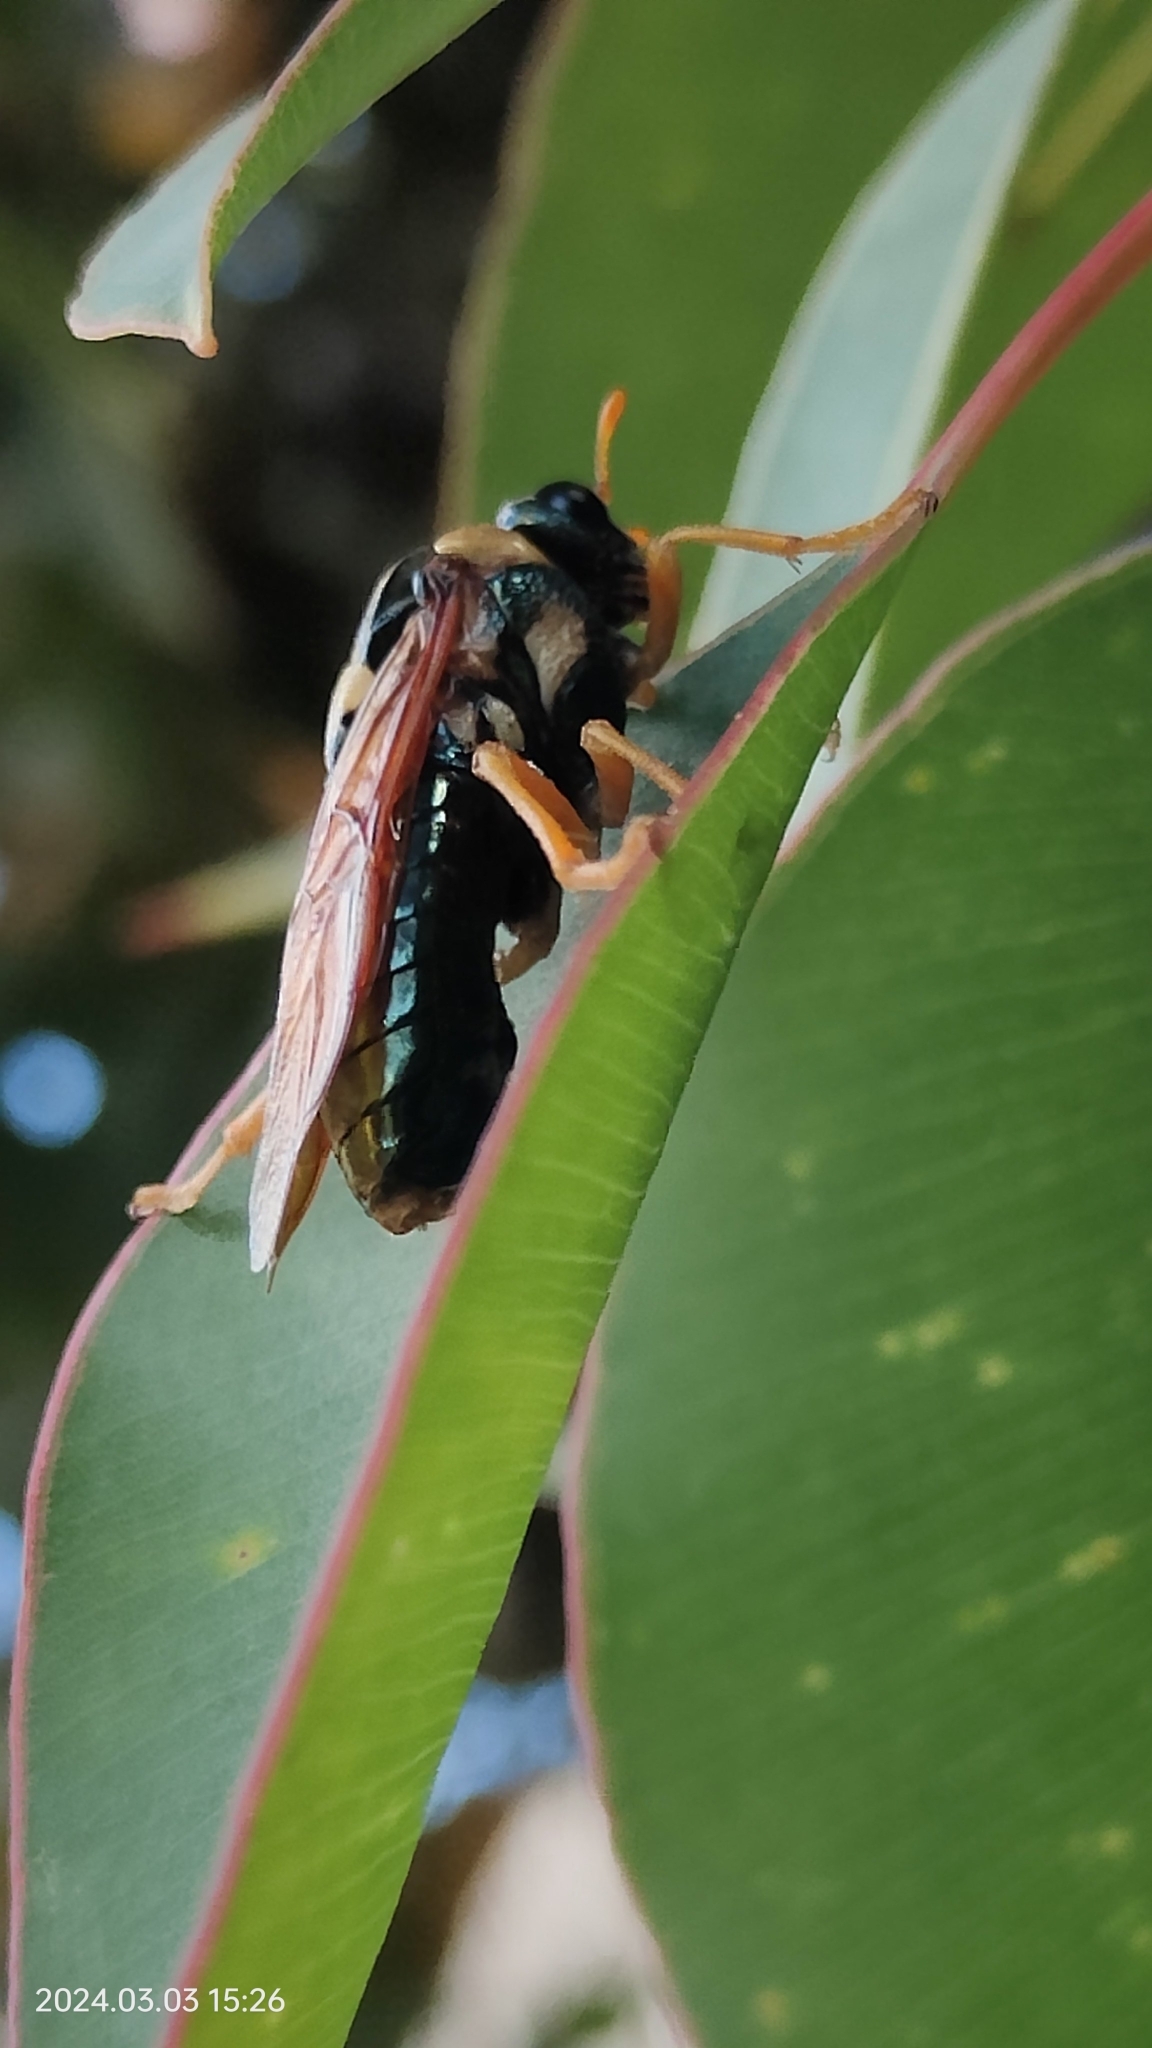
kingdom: Animalia
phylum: Arthropoda
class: Insecta
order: Hymenoptera
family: Pergidae
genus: Perga
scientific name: Perga affinis
